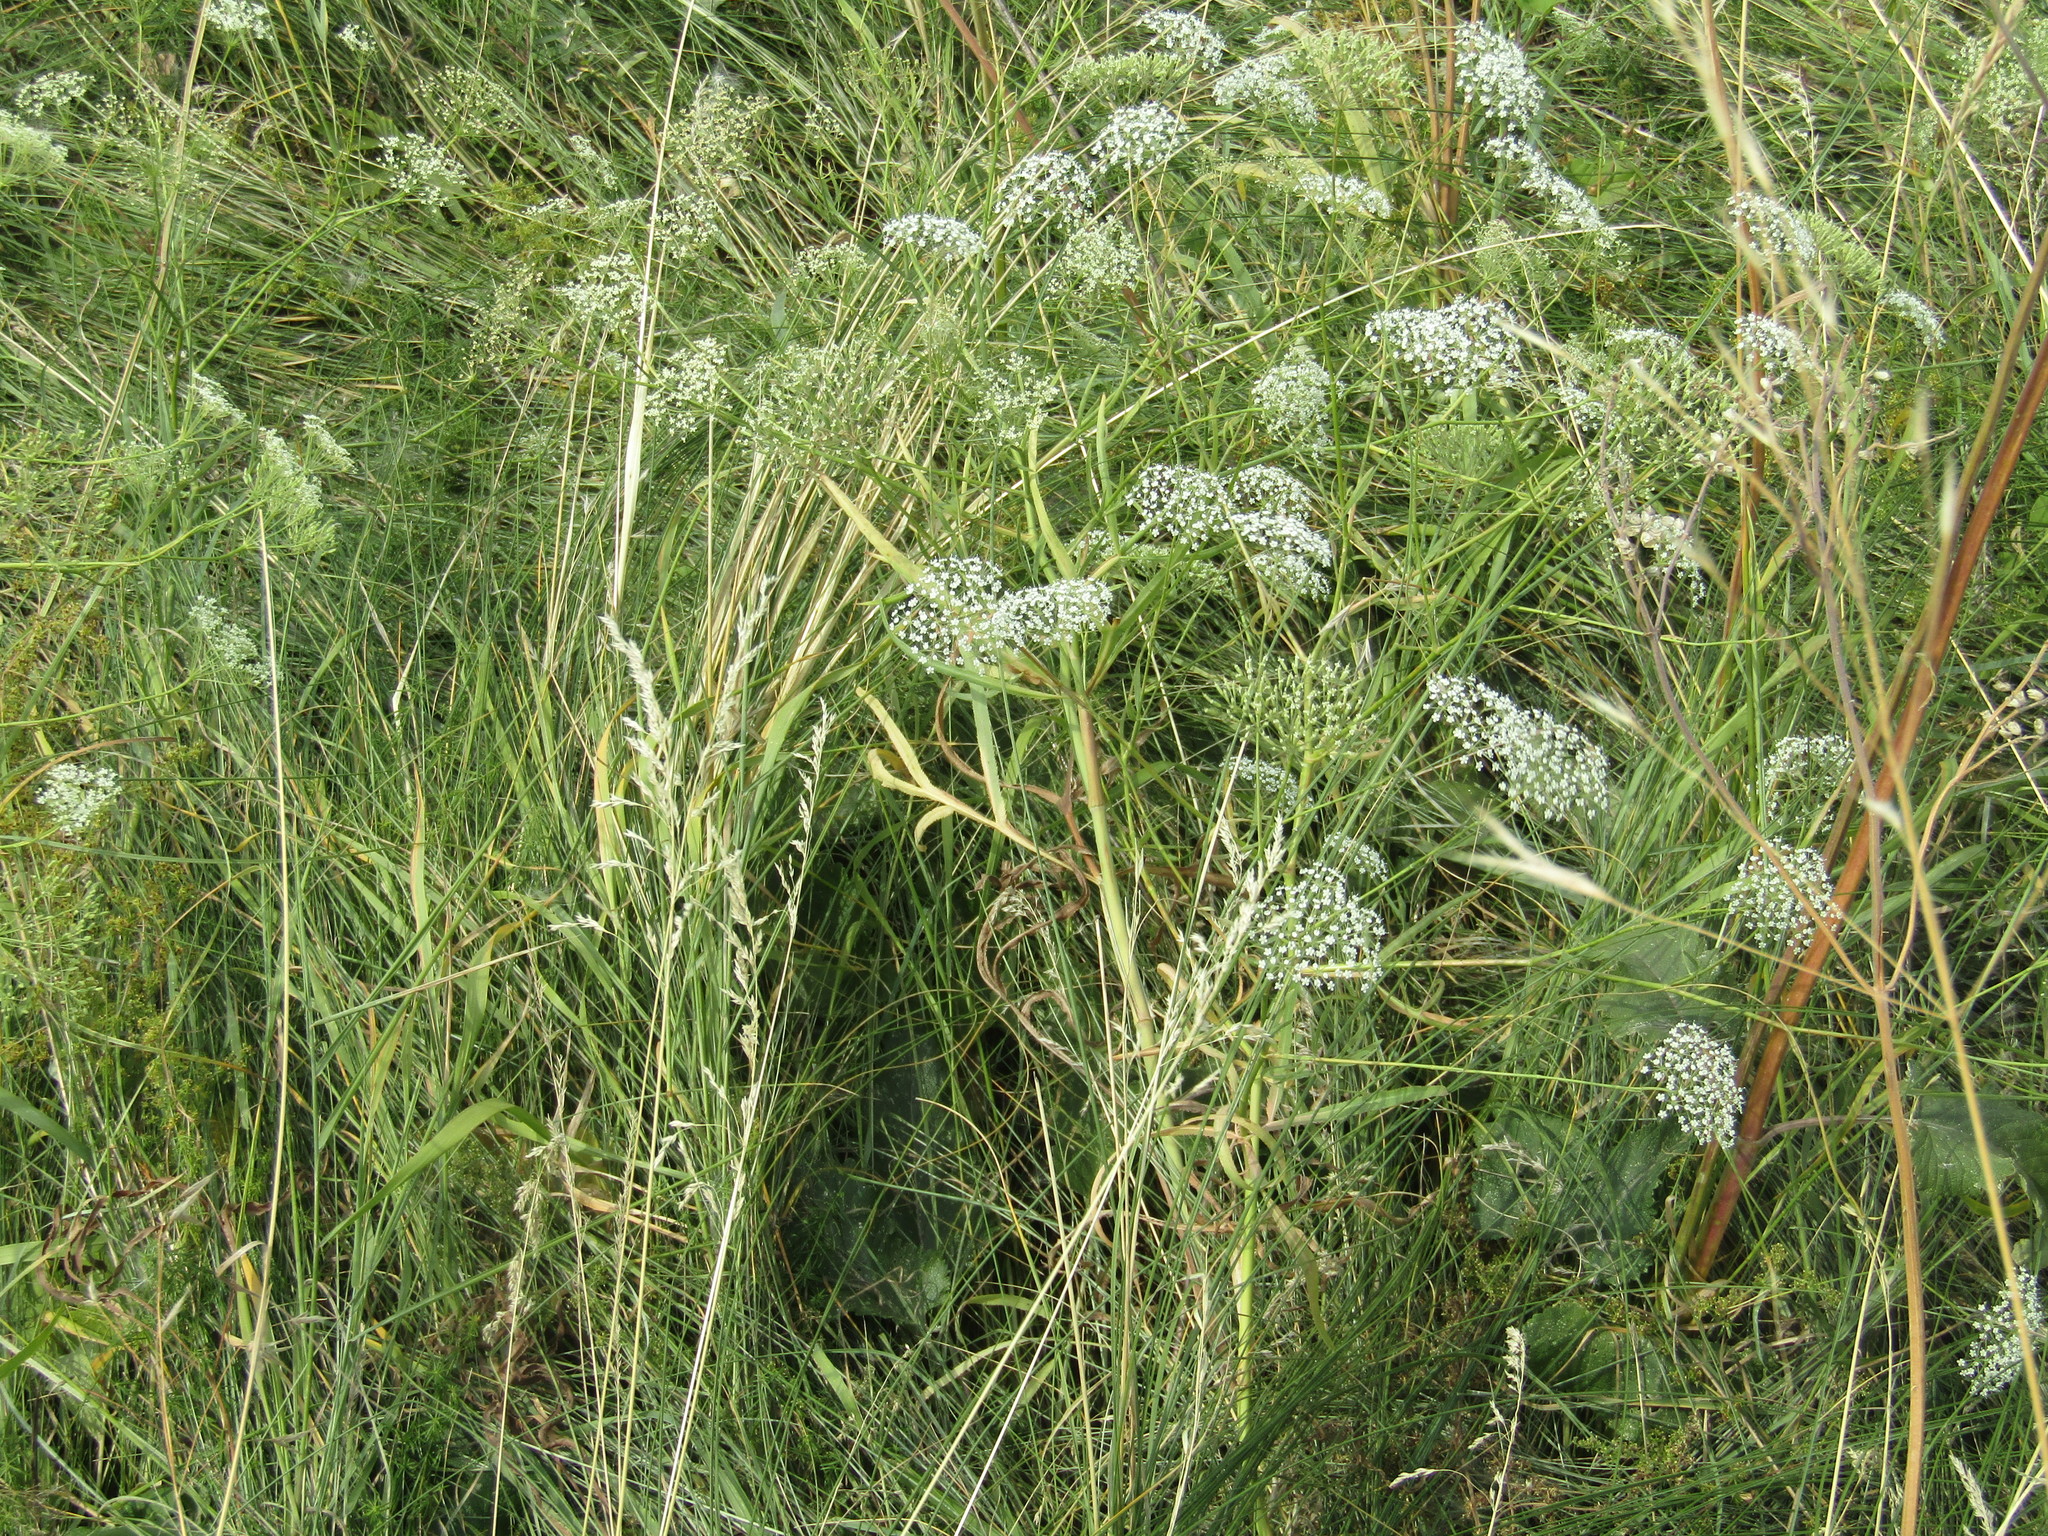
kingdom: Plantae
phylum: Tracheophyta
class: Magnoliopsida
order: Apiales
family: Apiaceae
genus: Falcaria
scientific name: Falcaria vulgaris
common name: Longleaf
